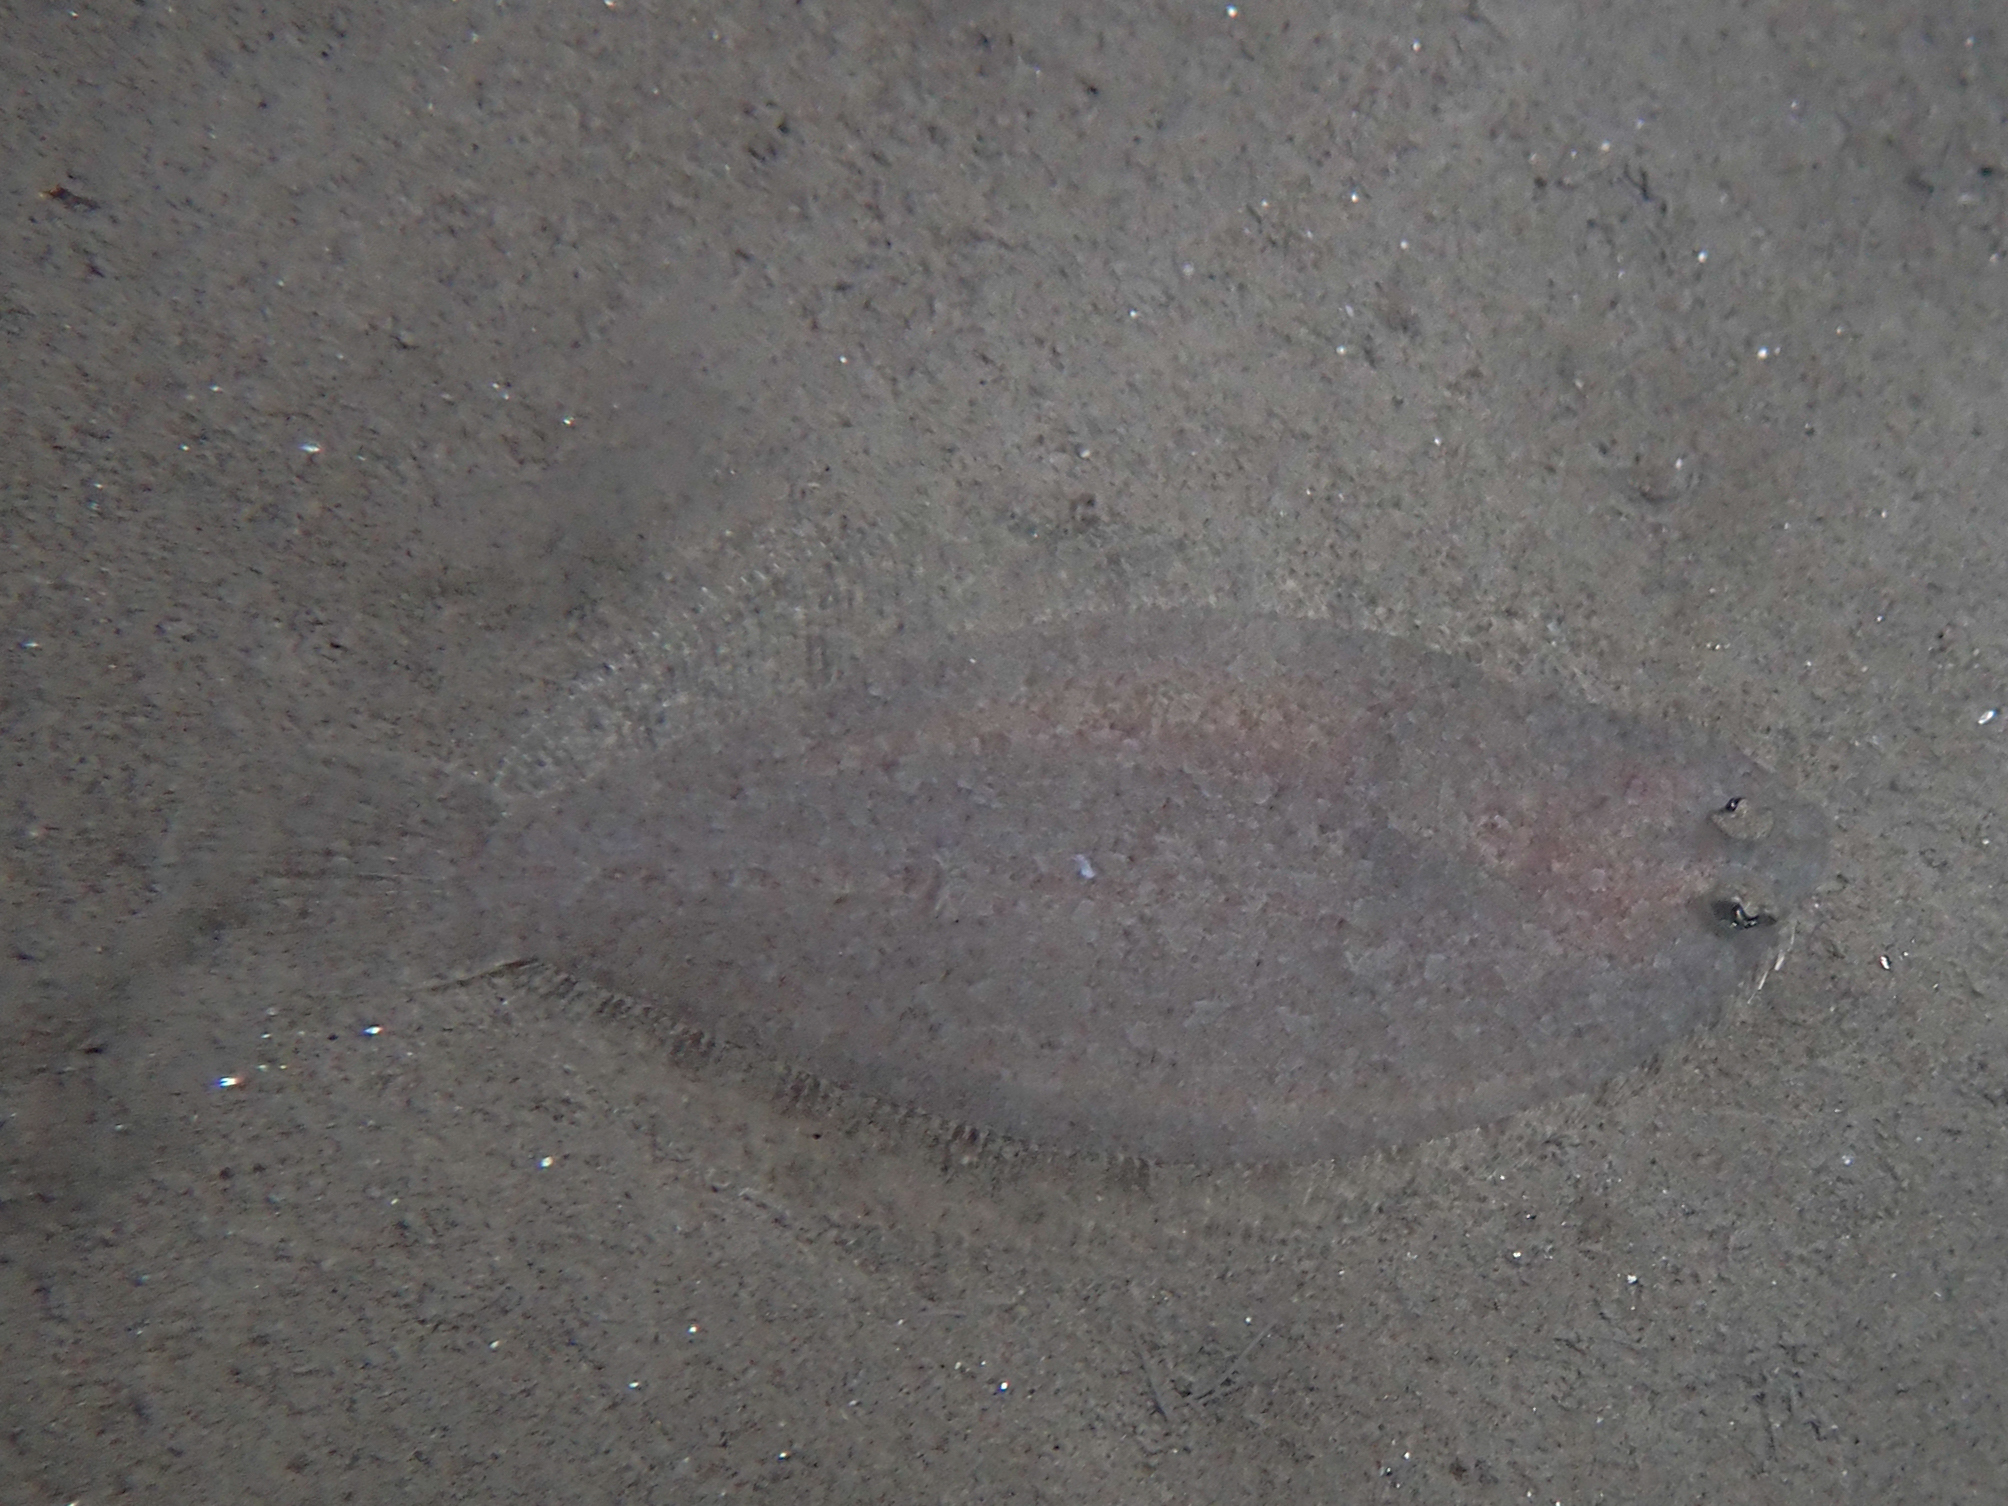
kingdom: Animalia
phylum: Chordata
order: Pleuronectiformes
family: Bothidae
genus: Arnoglossus
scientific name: Arnoglossus laterna
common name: Scaldfish
